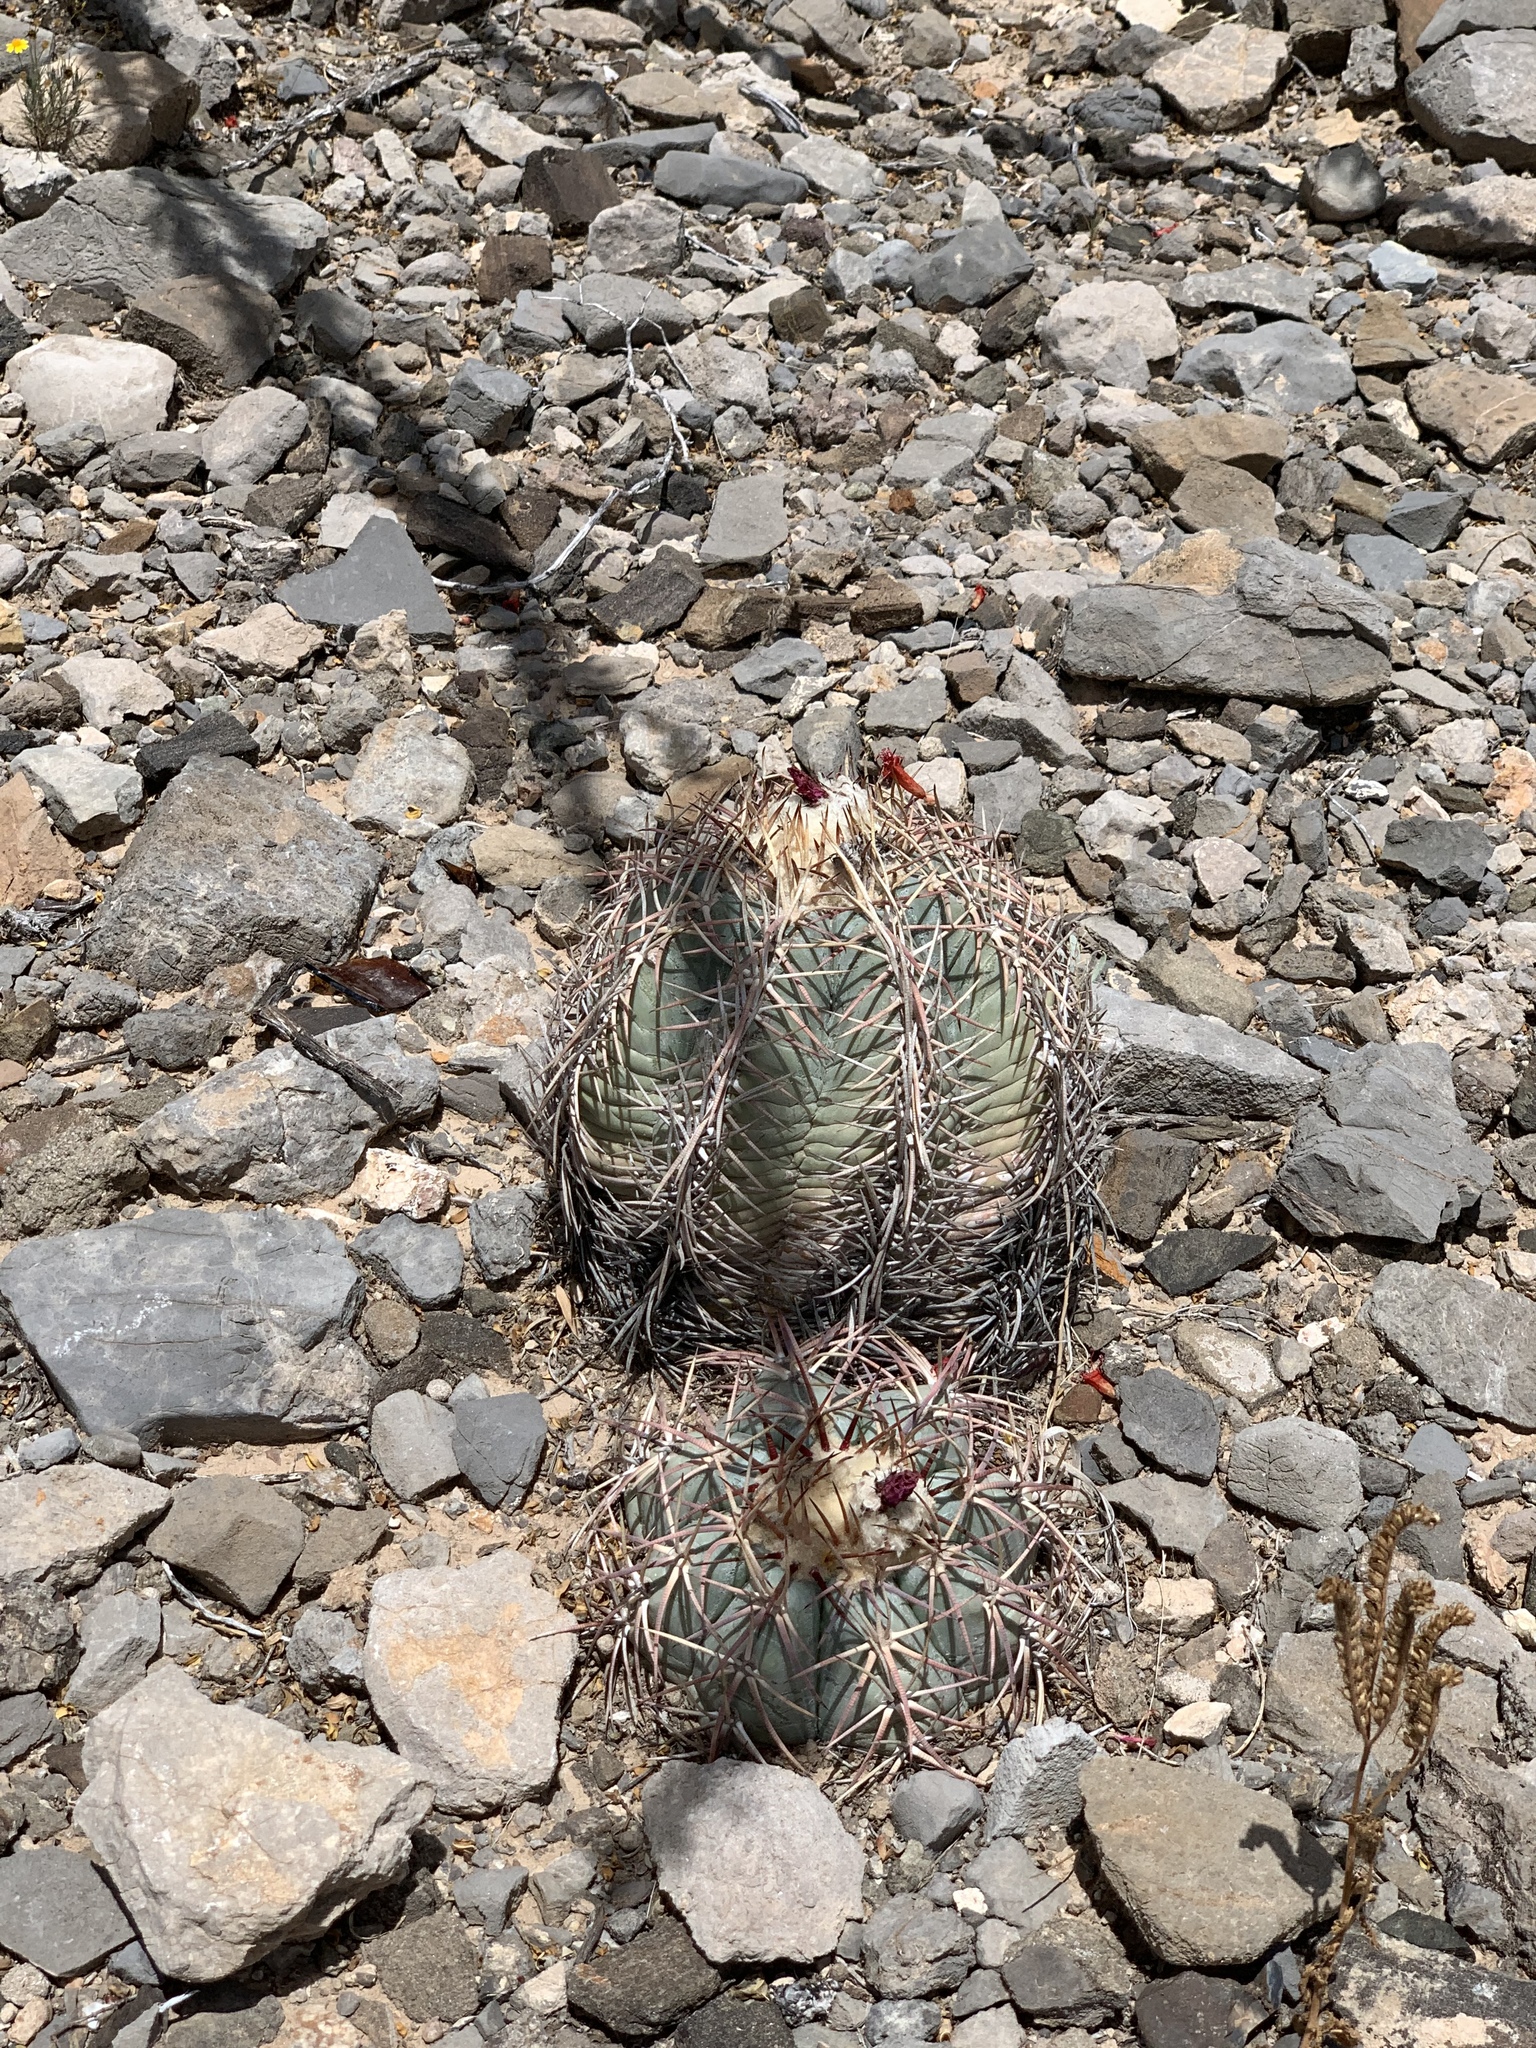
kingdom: Plantae
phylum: Tracheophyta
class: Magnoliopsida
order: Caryophyllales
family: Cactaceae
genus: Echinocactus
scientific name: Echinocactus horizonthalonius
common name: Devilshead
